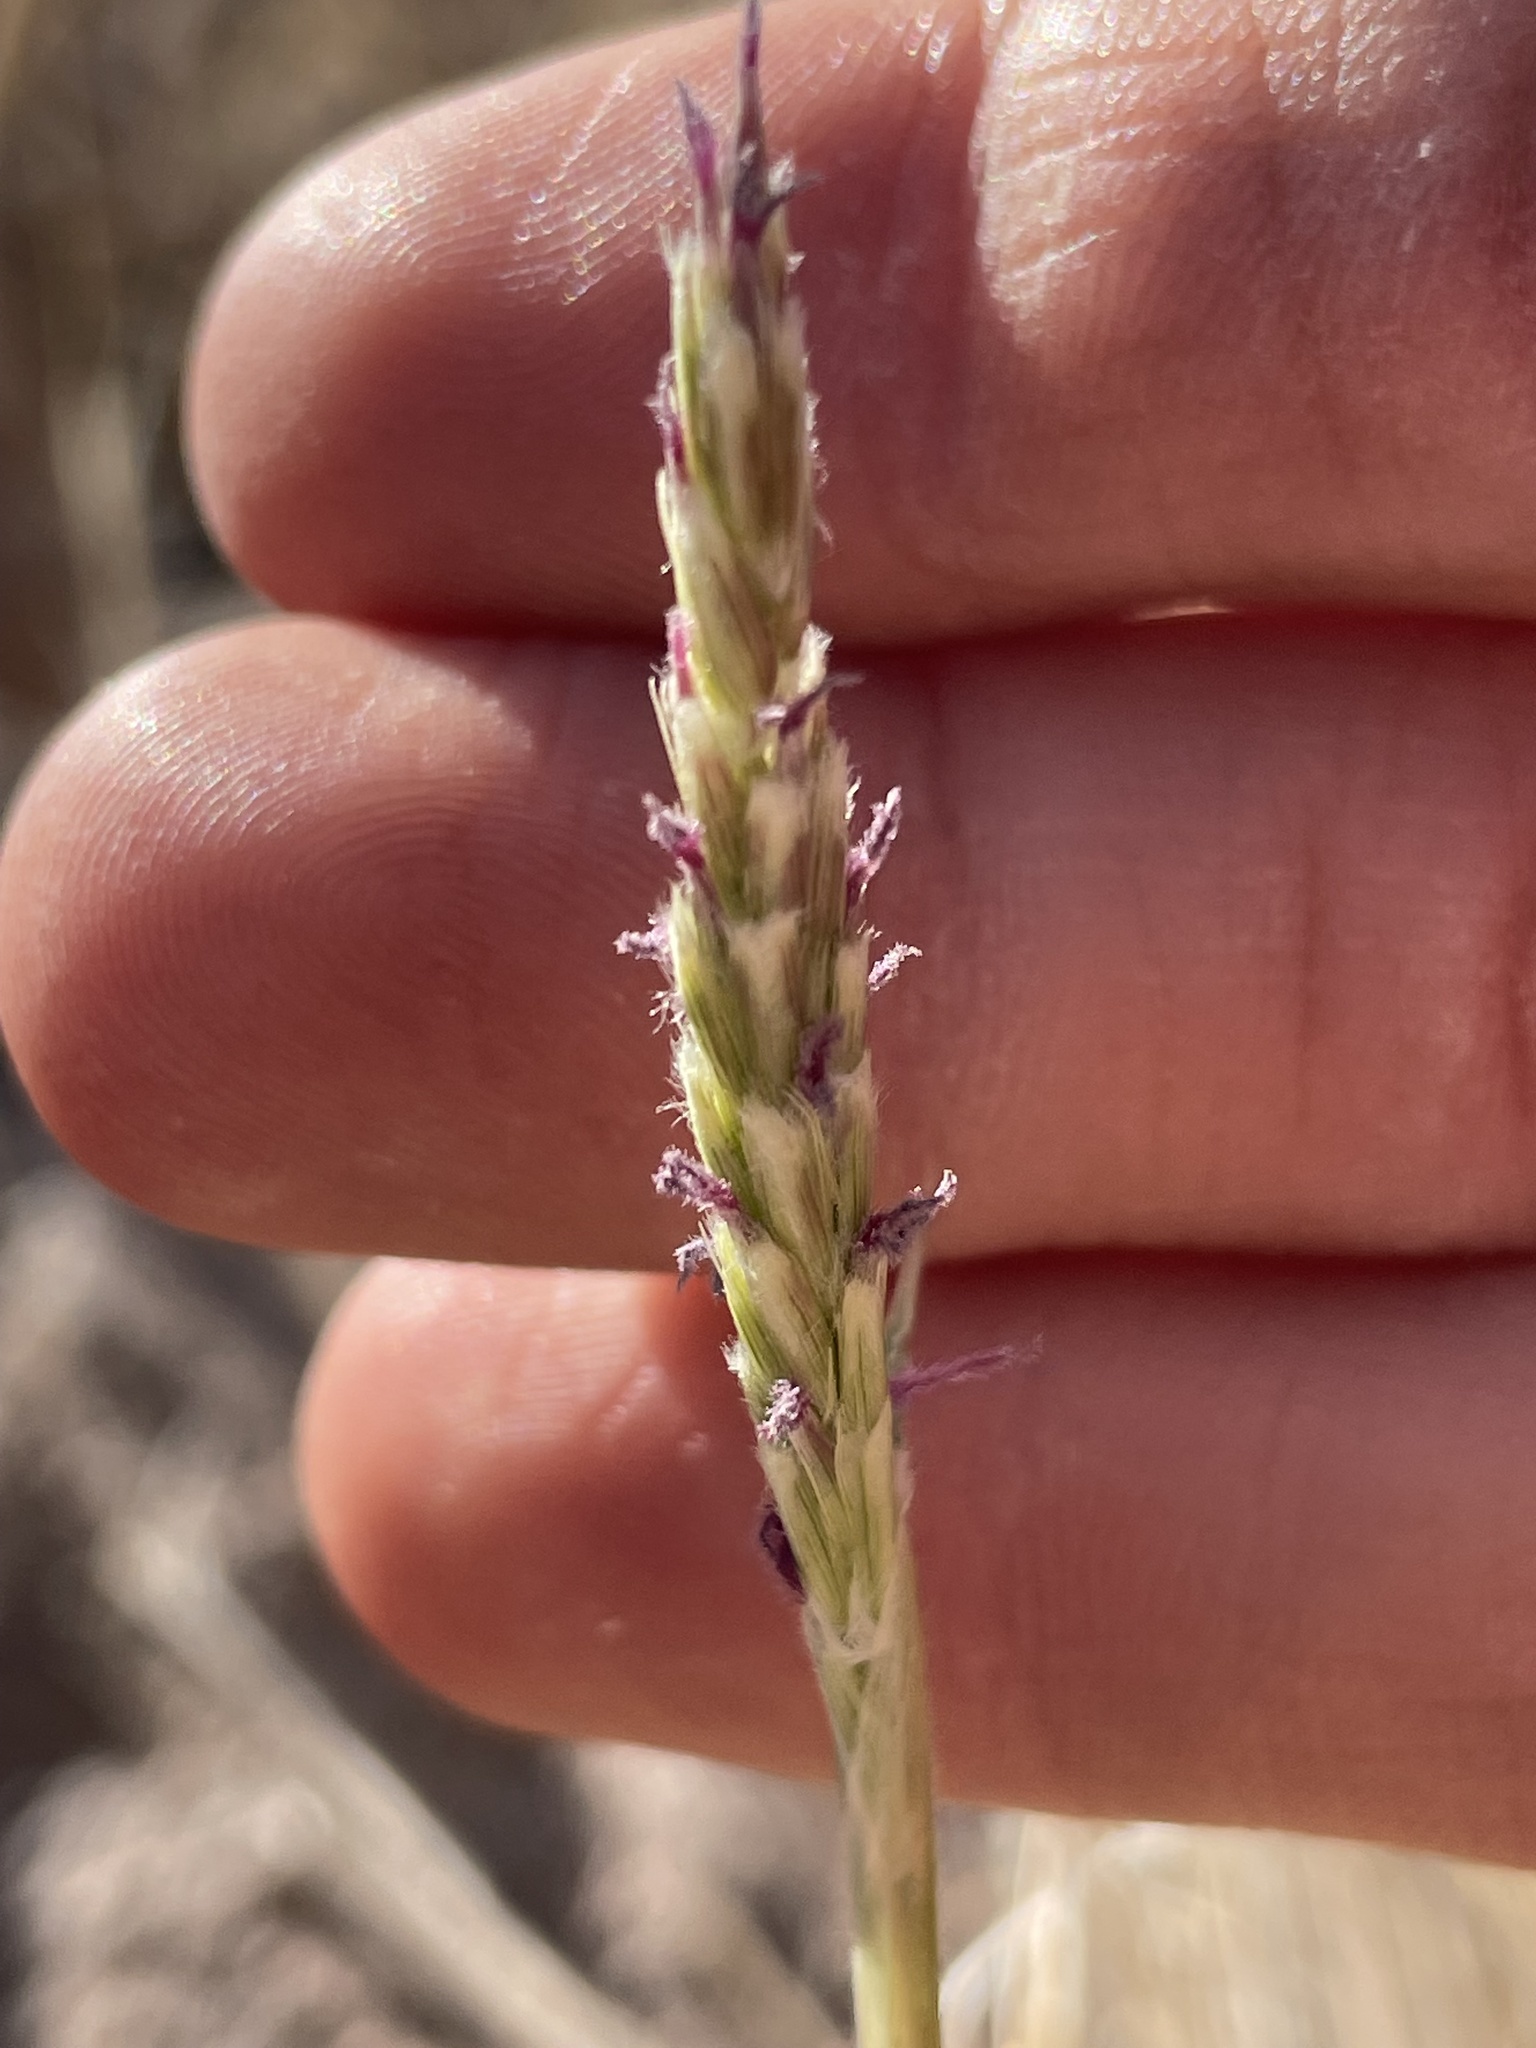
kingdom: Plantae
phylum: Tracheophyta
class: Liliopsida
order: Poales
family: Poaceae
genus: Hilaria
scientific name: Hilaria rigida
